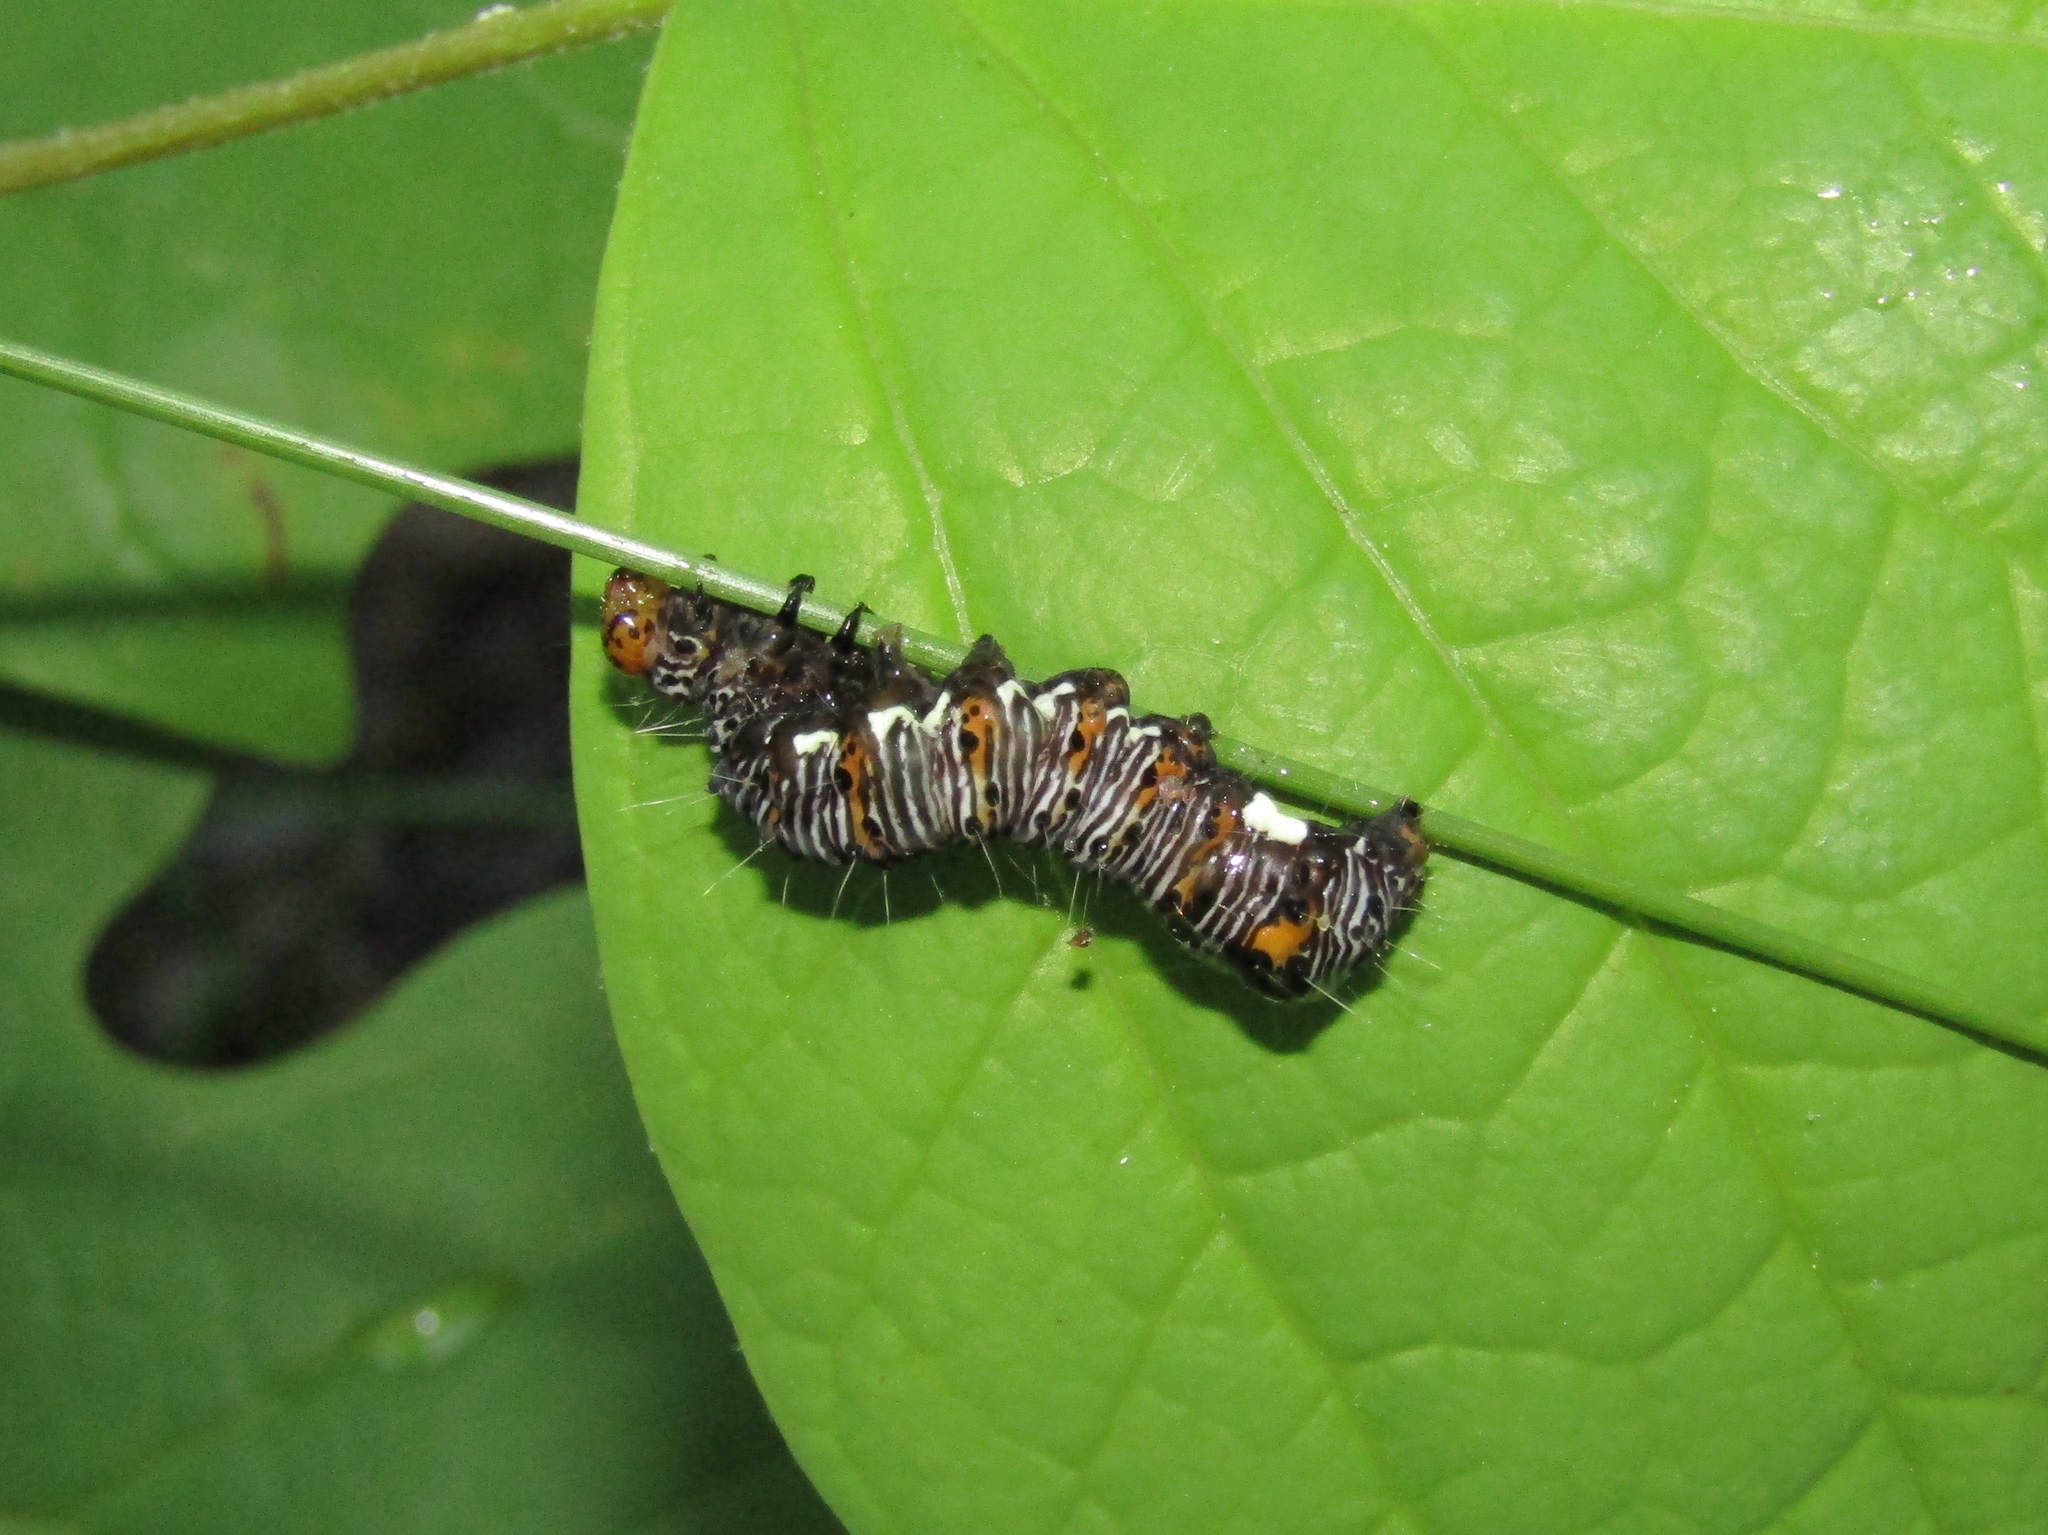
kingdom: Animalia
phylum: Arthropoda
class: Insecta
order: Lepidoptera
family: Noctuidae
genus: Alypia
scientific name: Alypia octomaculata
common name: Eight-spotted forester
